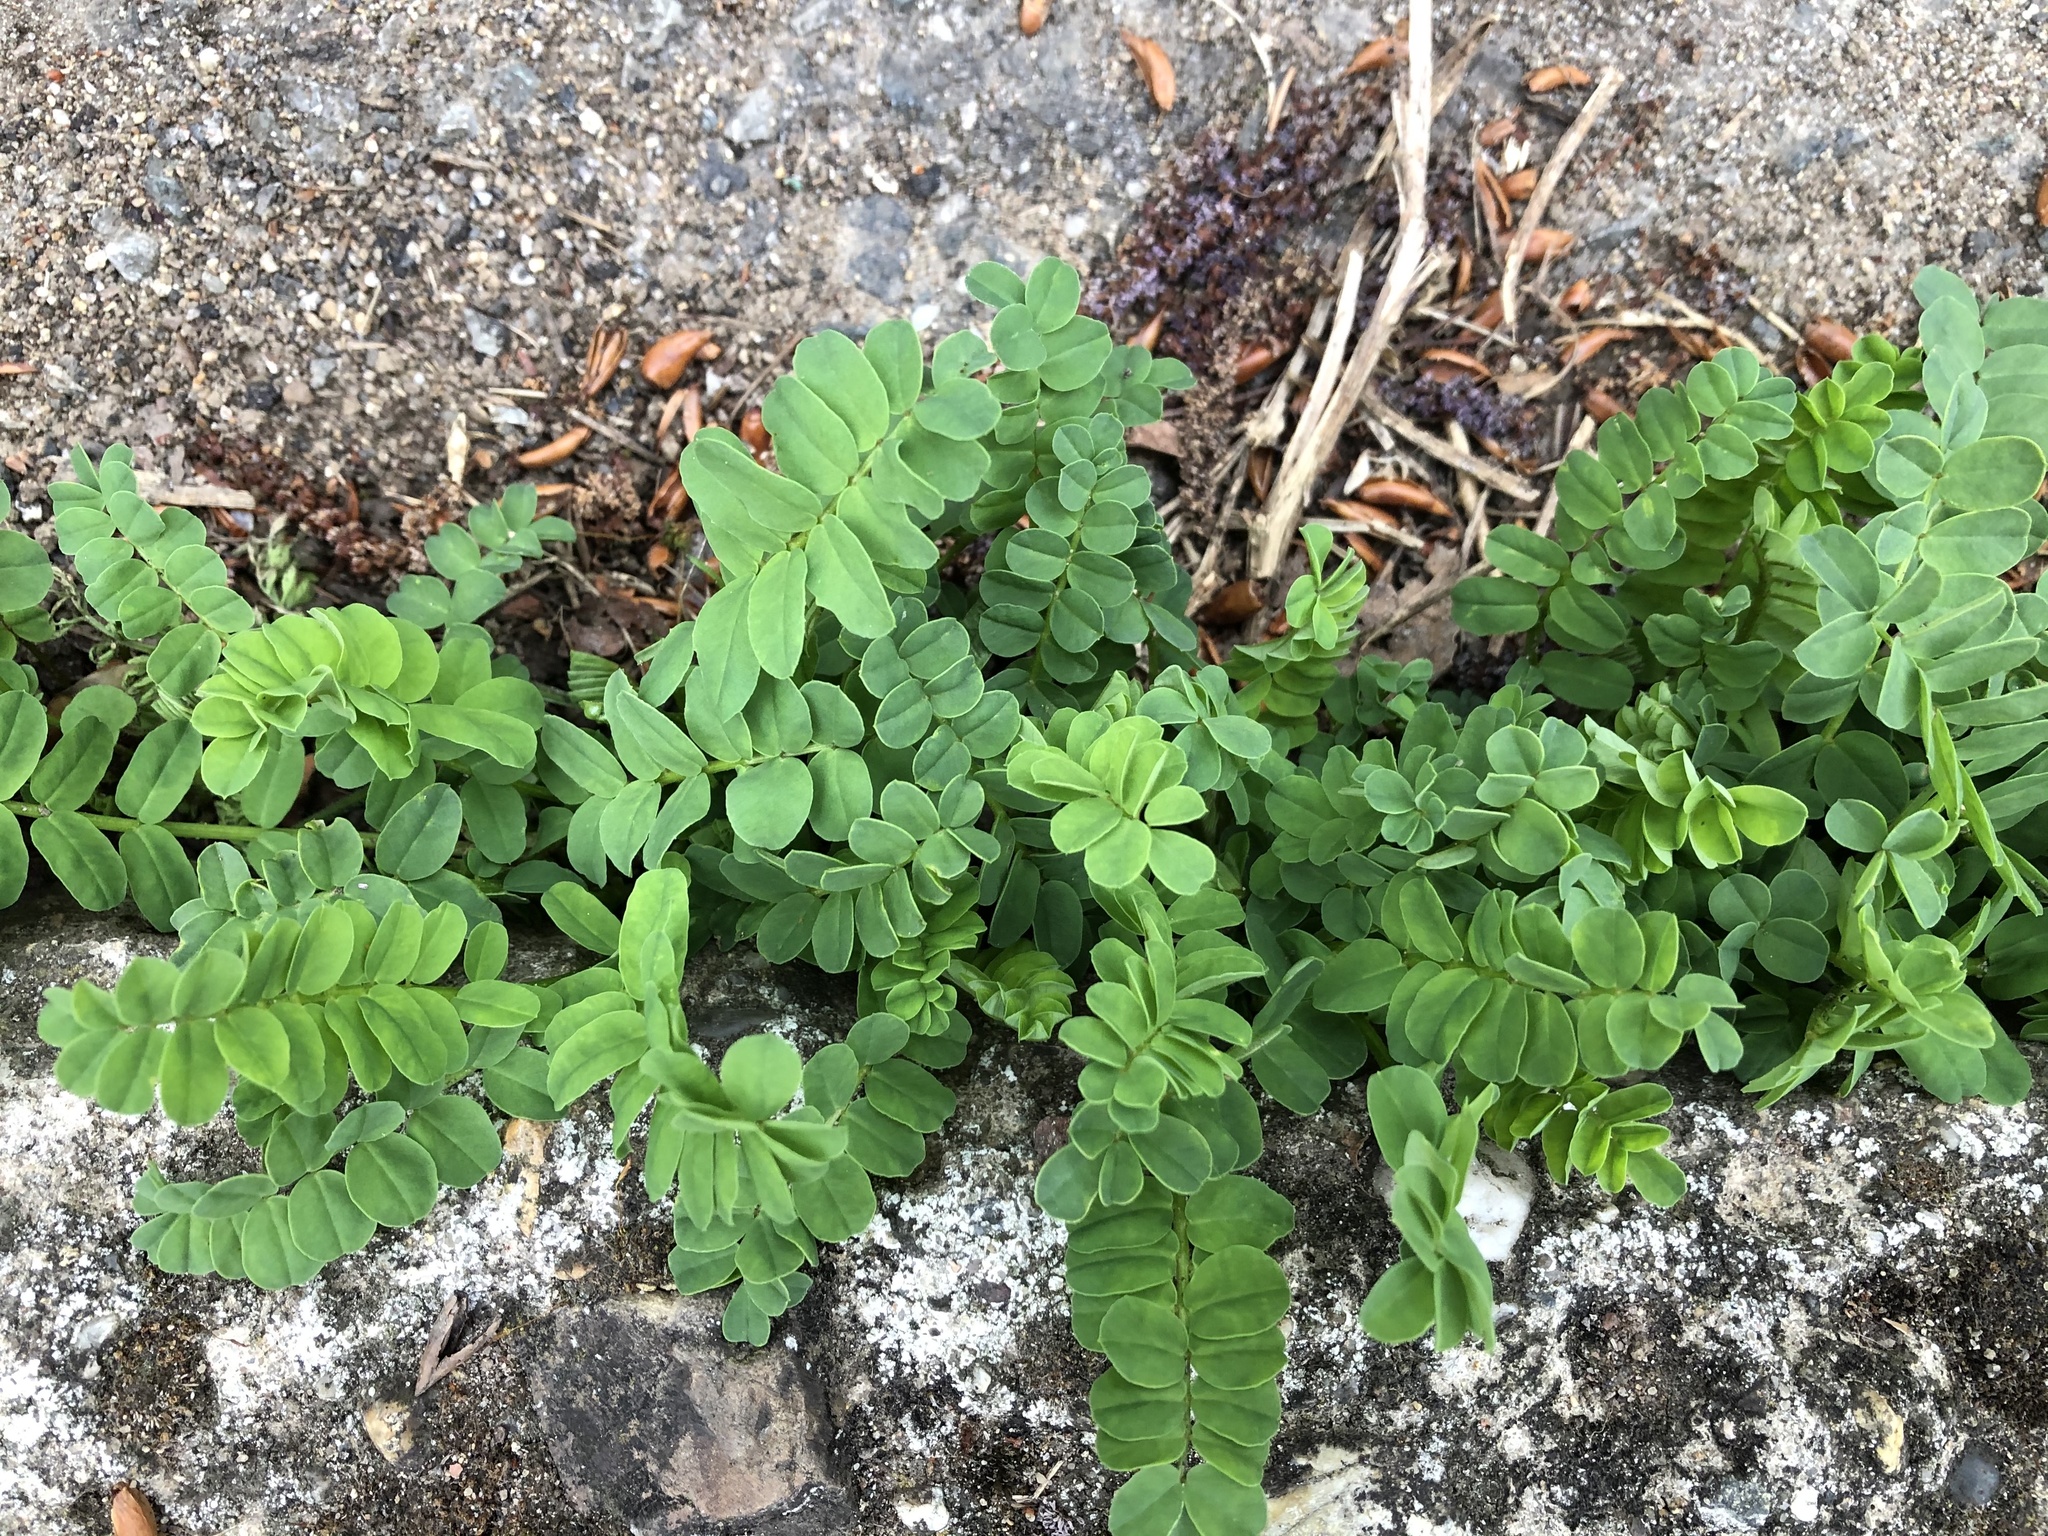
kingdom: Plantae
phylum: Tracheophyta
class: Magnoliopsida
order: Fabales
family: Fabaceae
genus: Coronilla
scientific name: Coronilla varia
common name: Crownvetch
